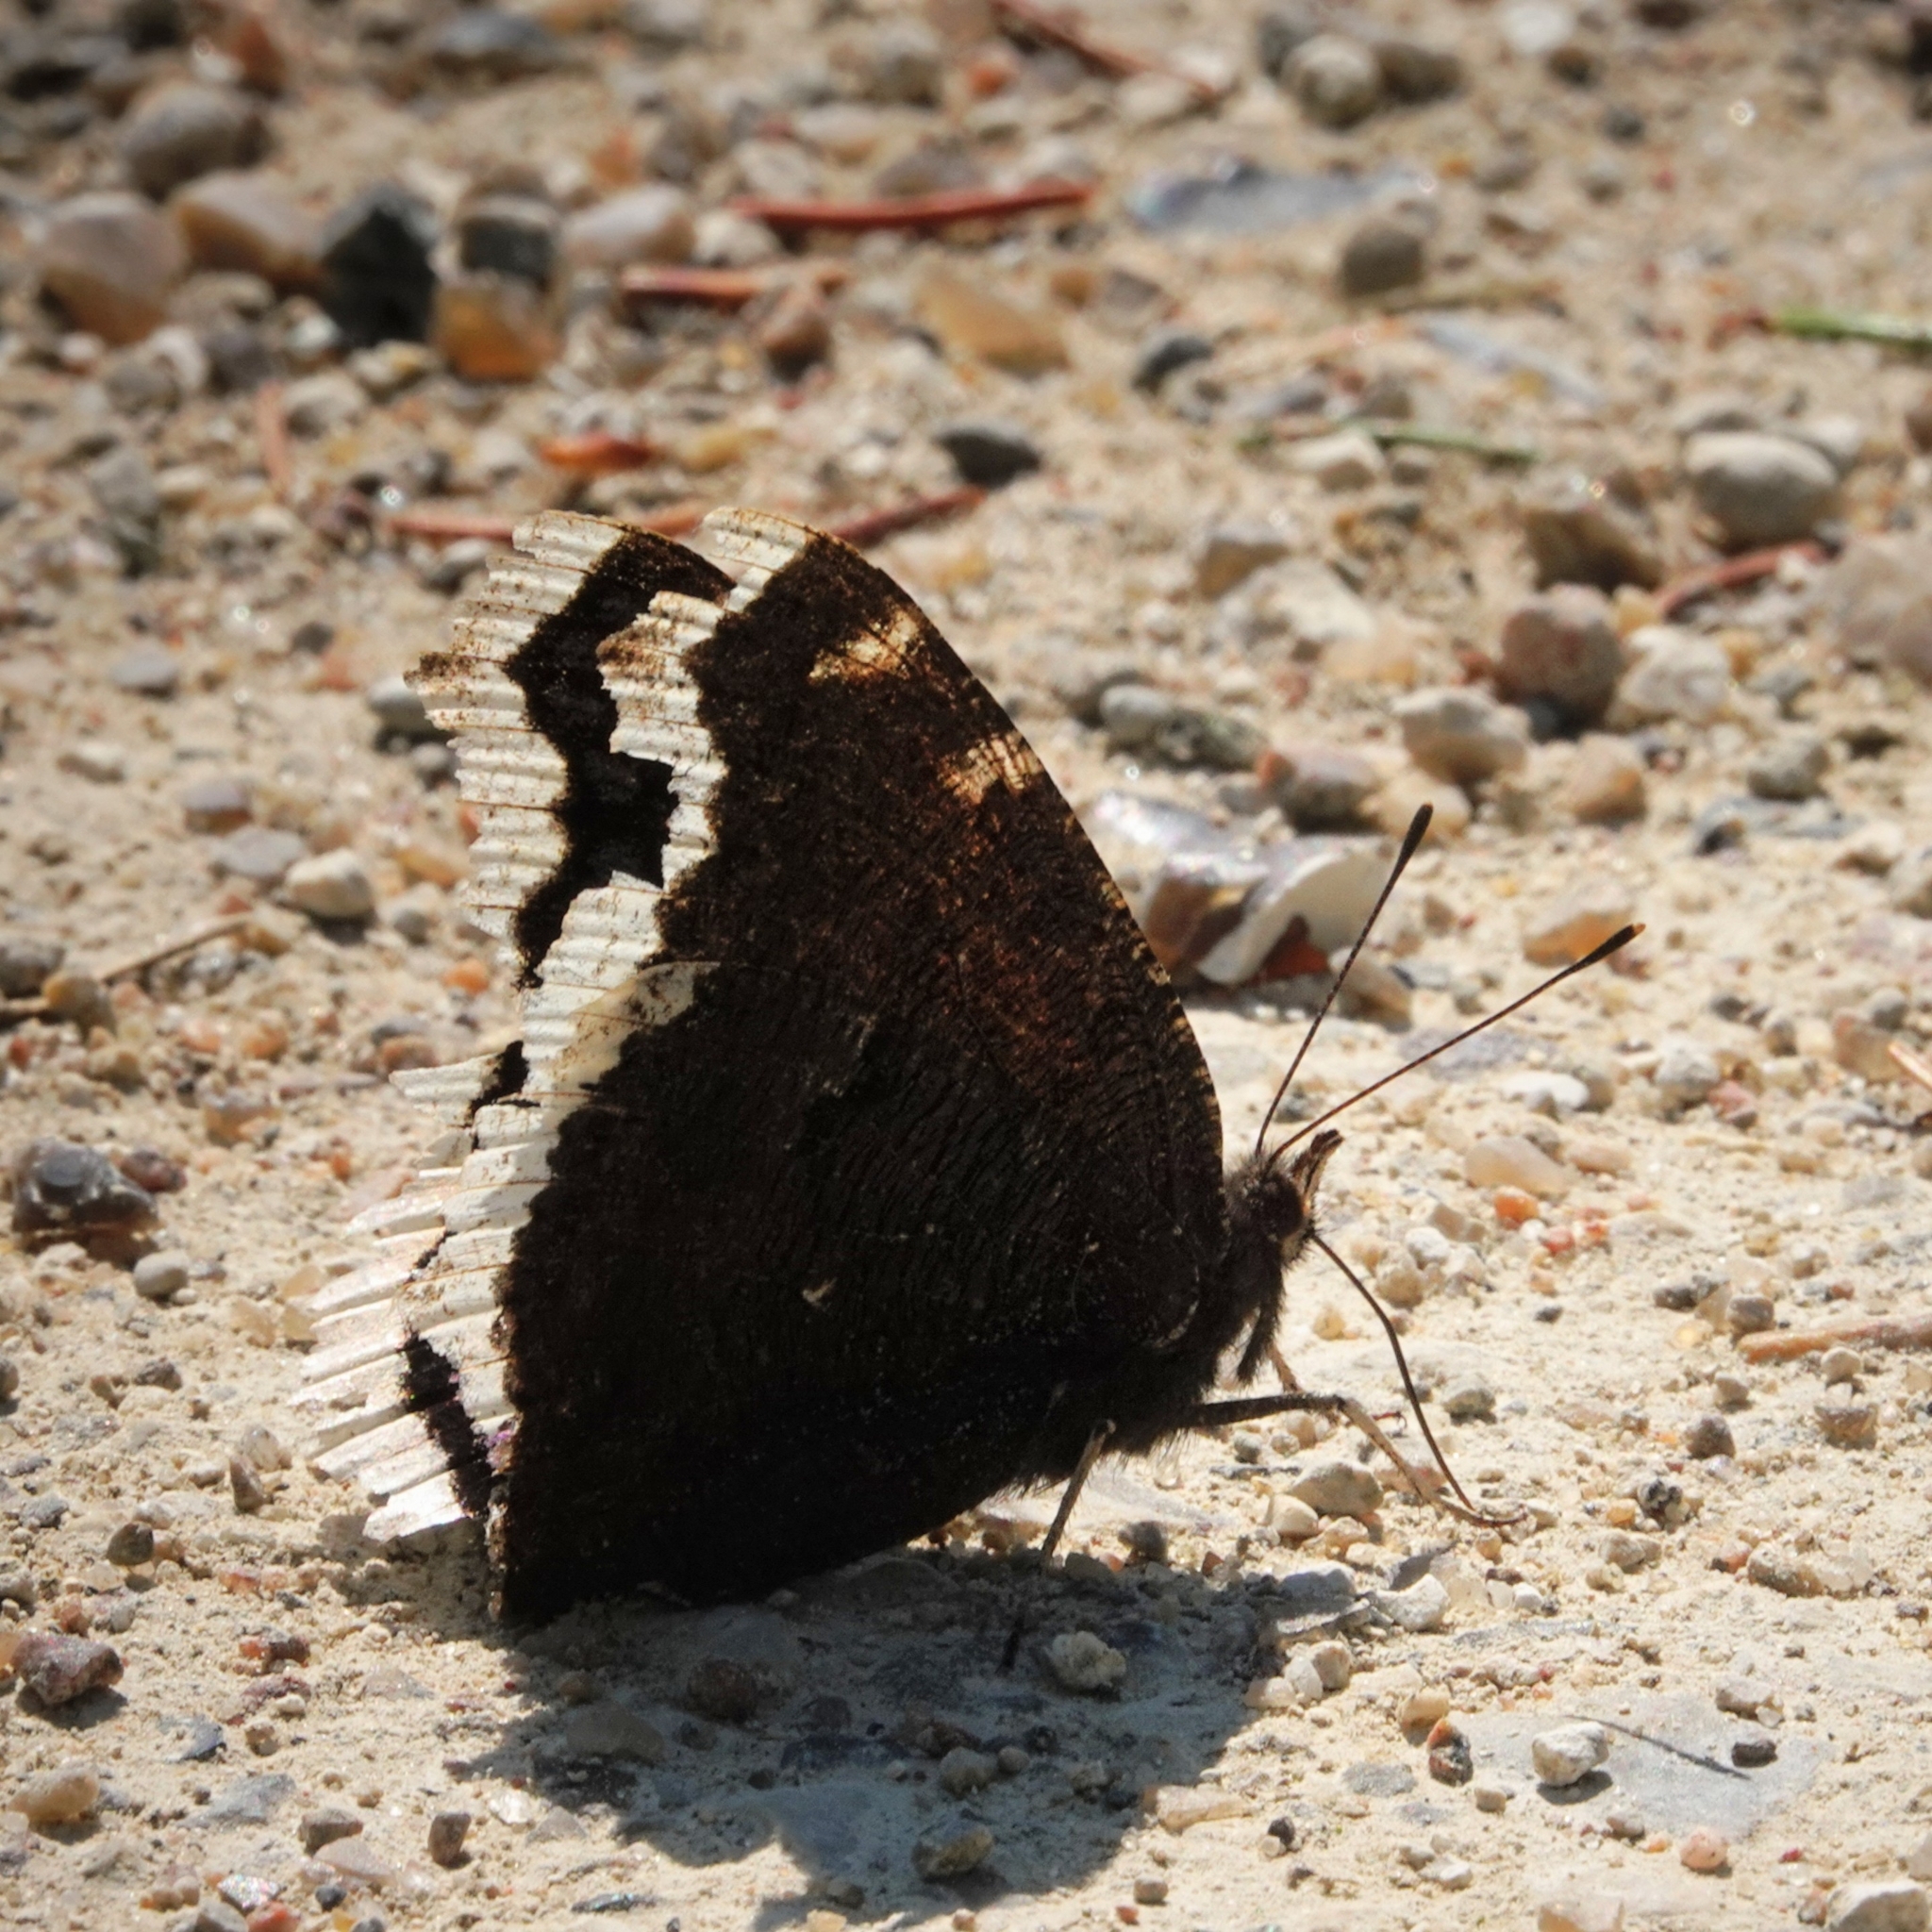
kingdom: Animalia
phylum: Arthropoda
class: Insecta
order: Lepidoptera
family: Nymphalidae
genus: Nymphalis
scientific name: Nymphalis antiopa
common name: Camberwell beauty
